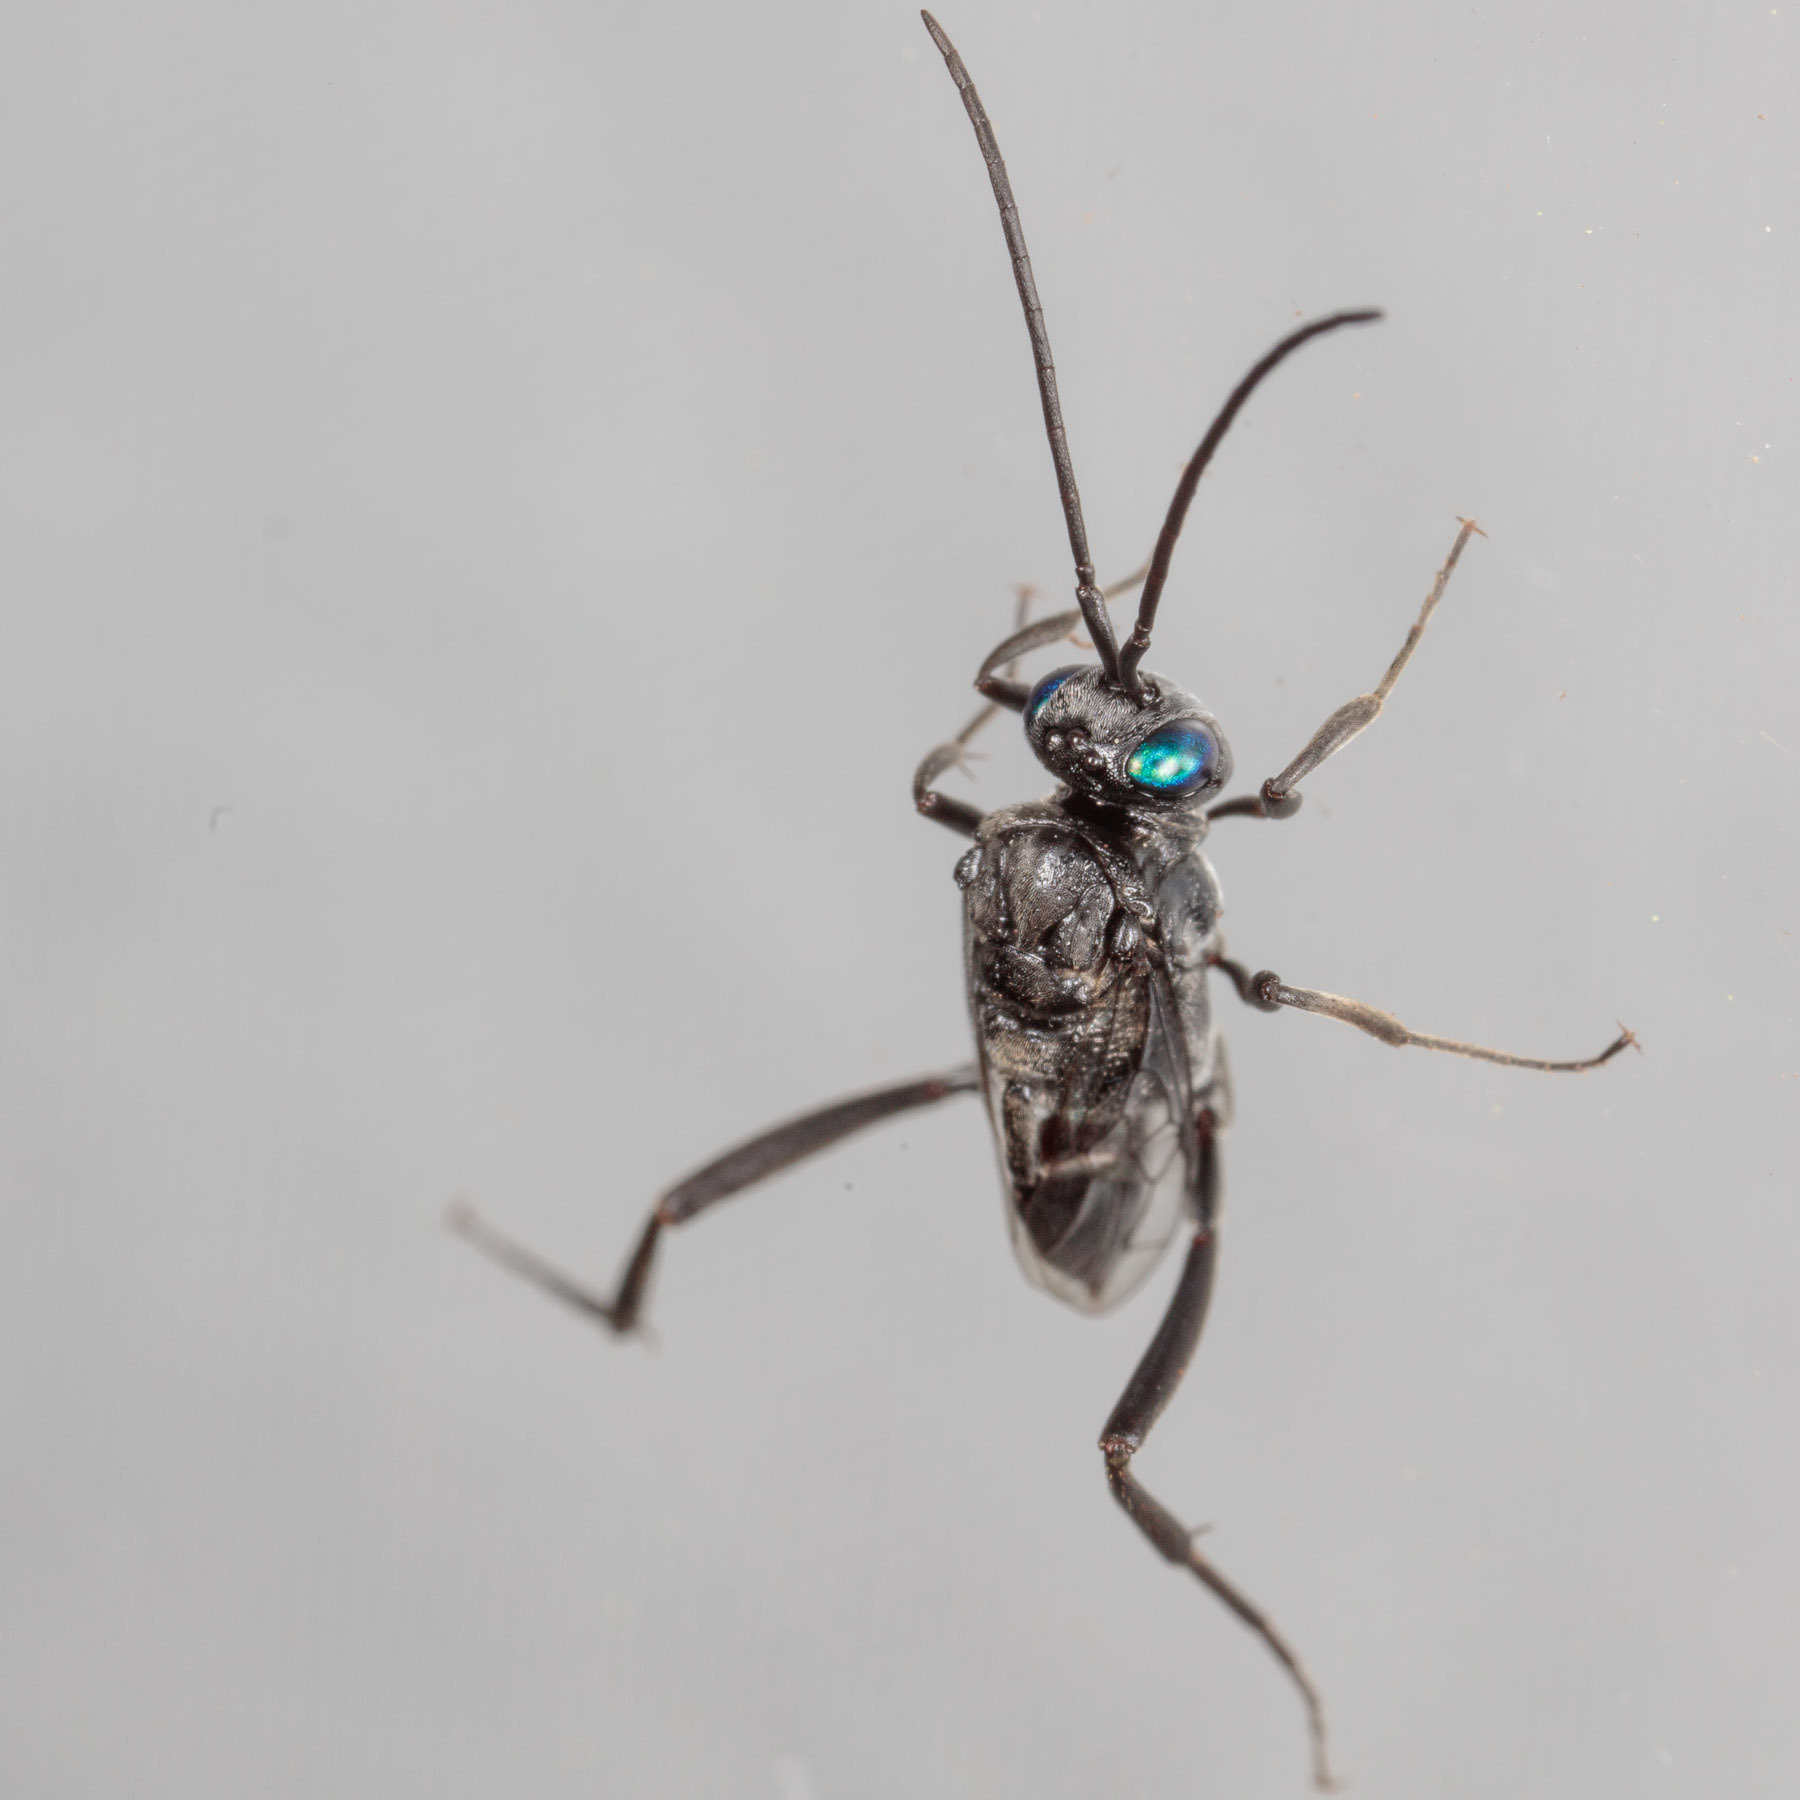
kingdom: Animalia
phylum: Arthropoda
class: Insecta
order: Hymenoptera
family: Evaniidae
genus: Evania
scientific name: Evania appendigaster
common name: Ensign wasp
